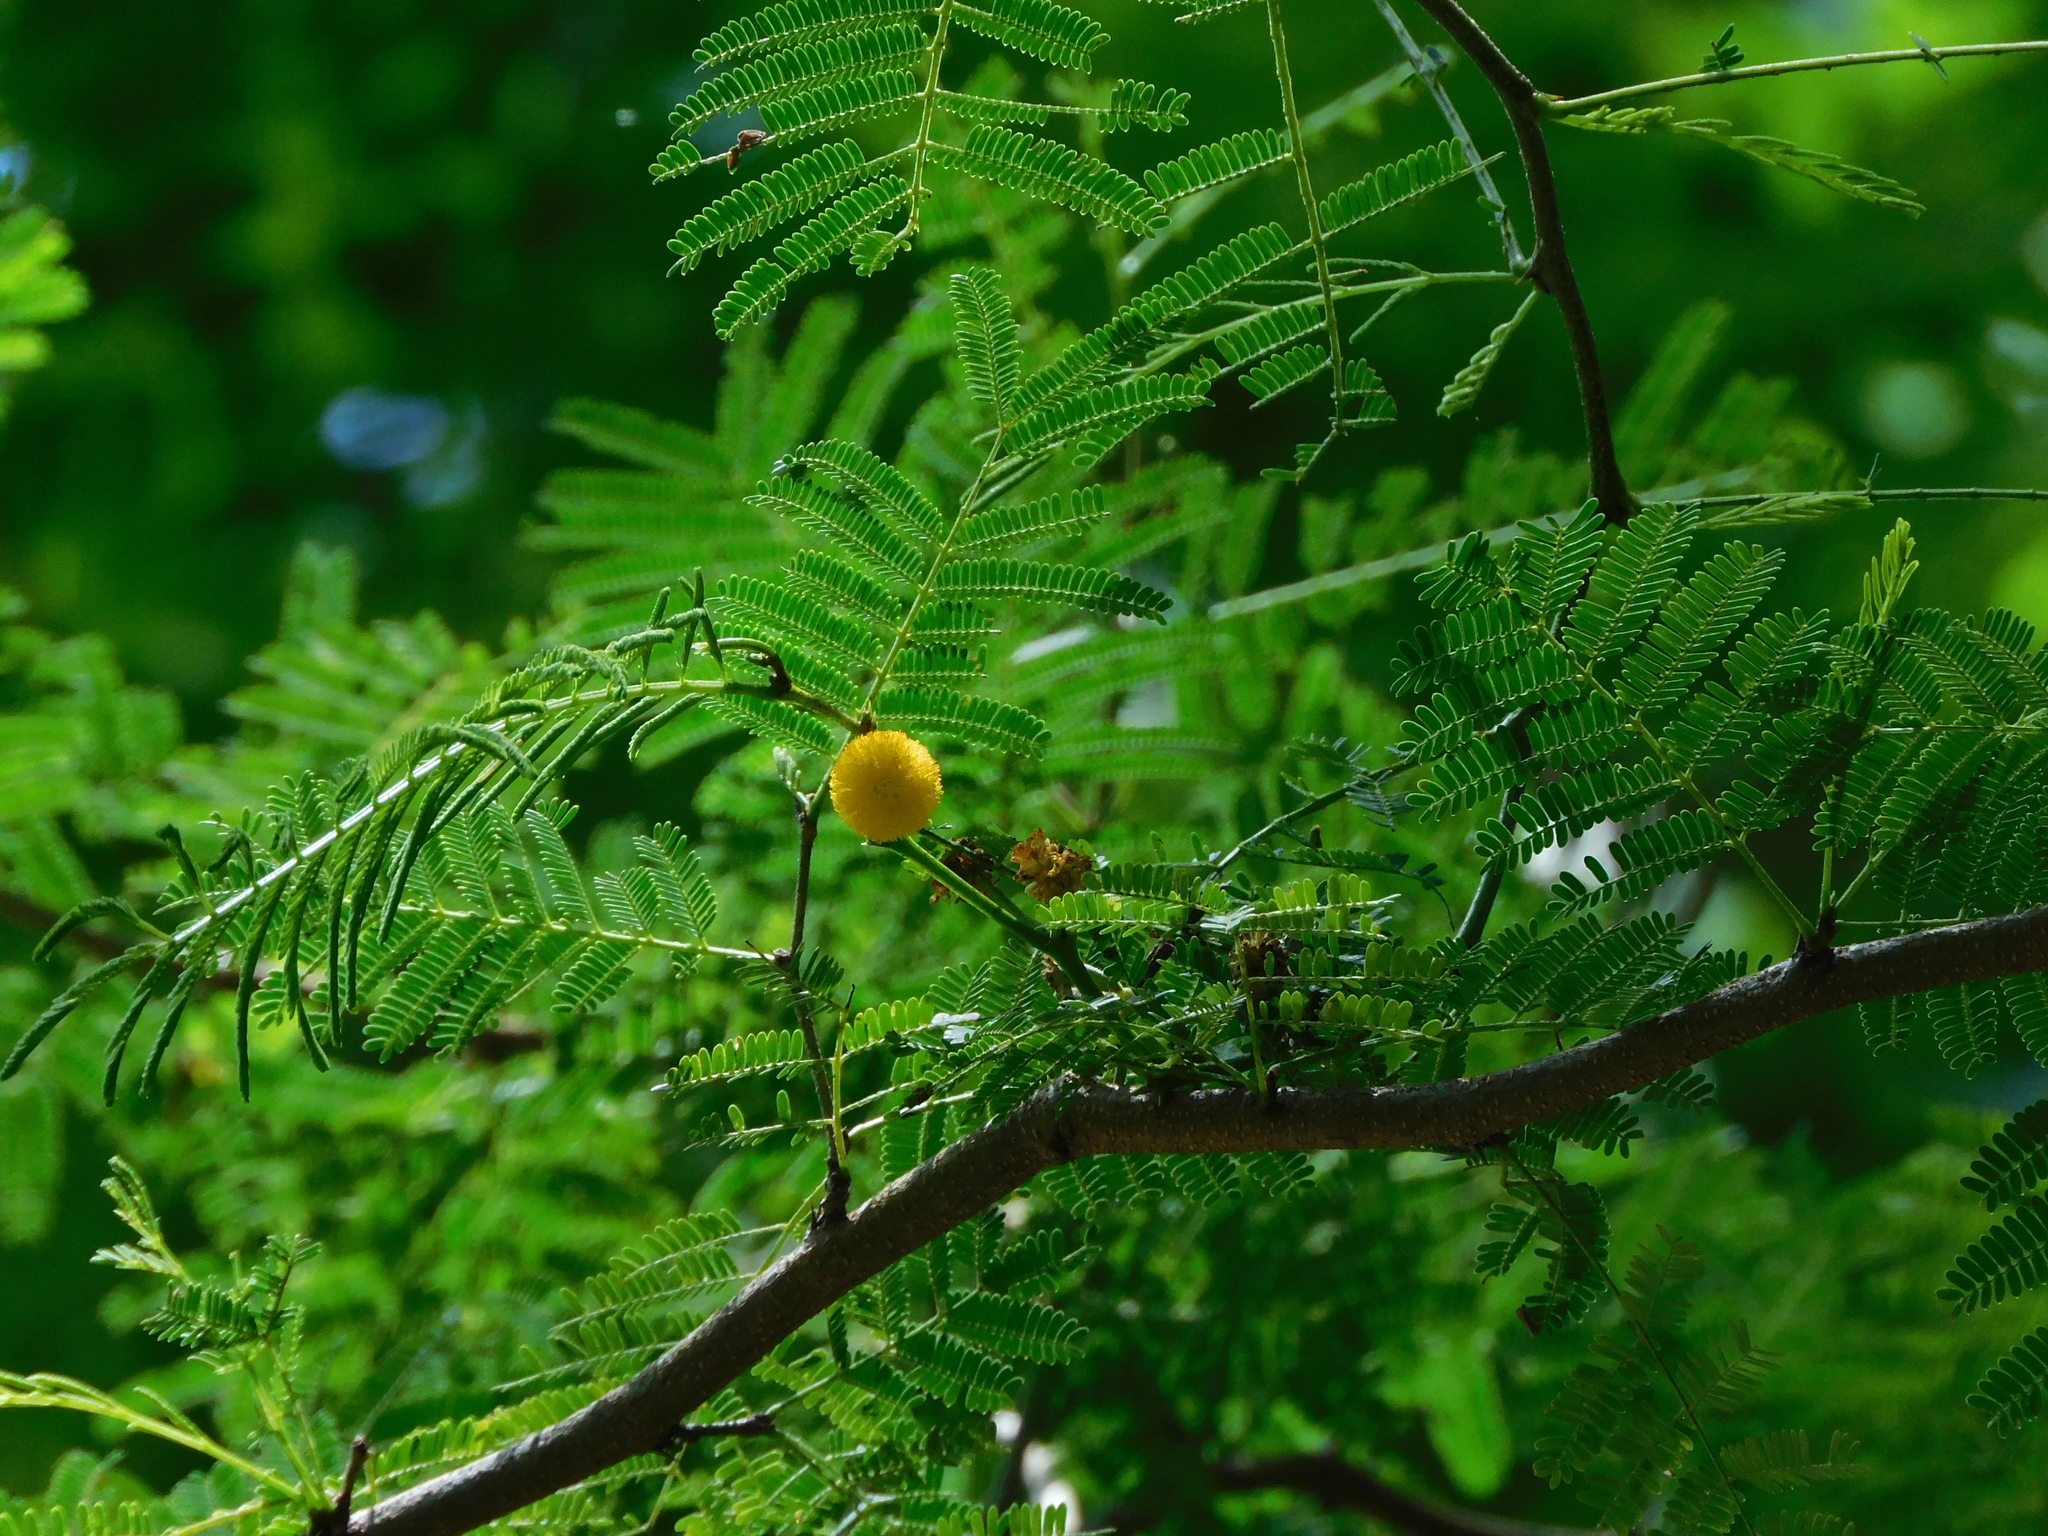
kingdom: Plantae
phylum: Tracheophyta
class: Magnoliopsida
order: Fabales
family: Fabaceae
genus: Vachellia
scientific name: Vachellia farnesiana
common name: Sweet acacia
